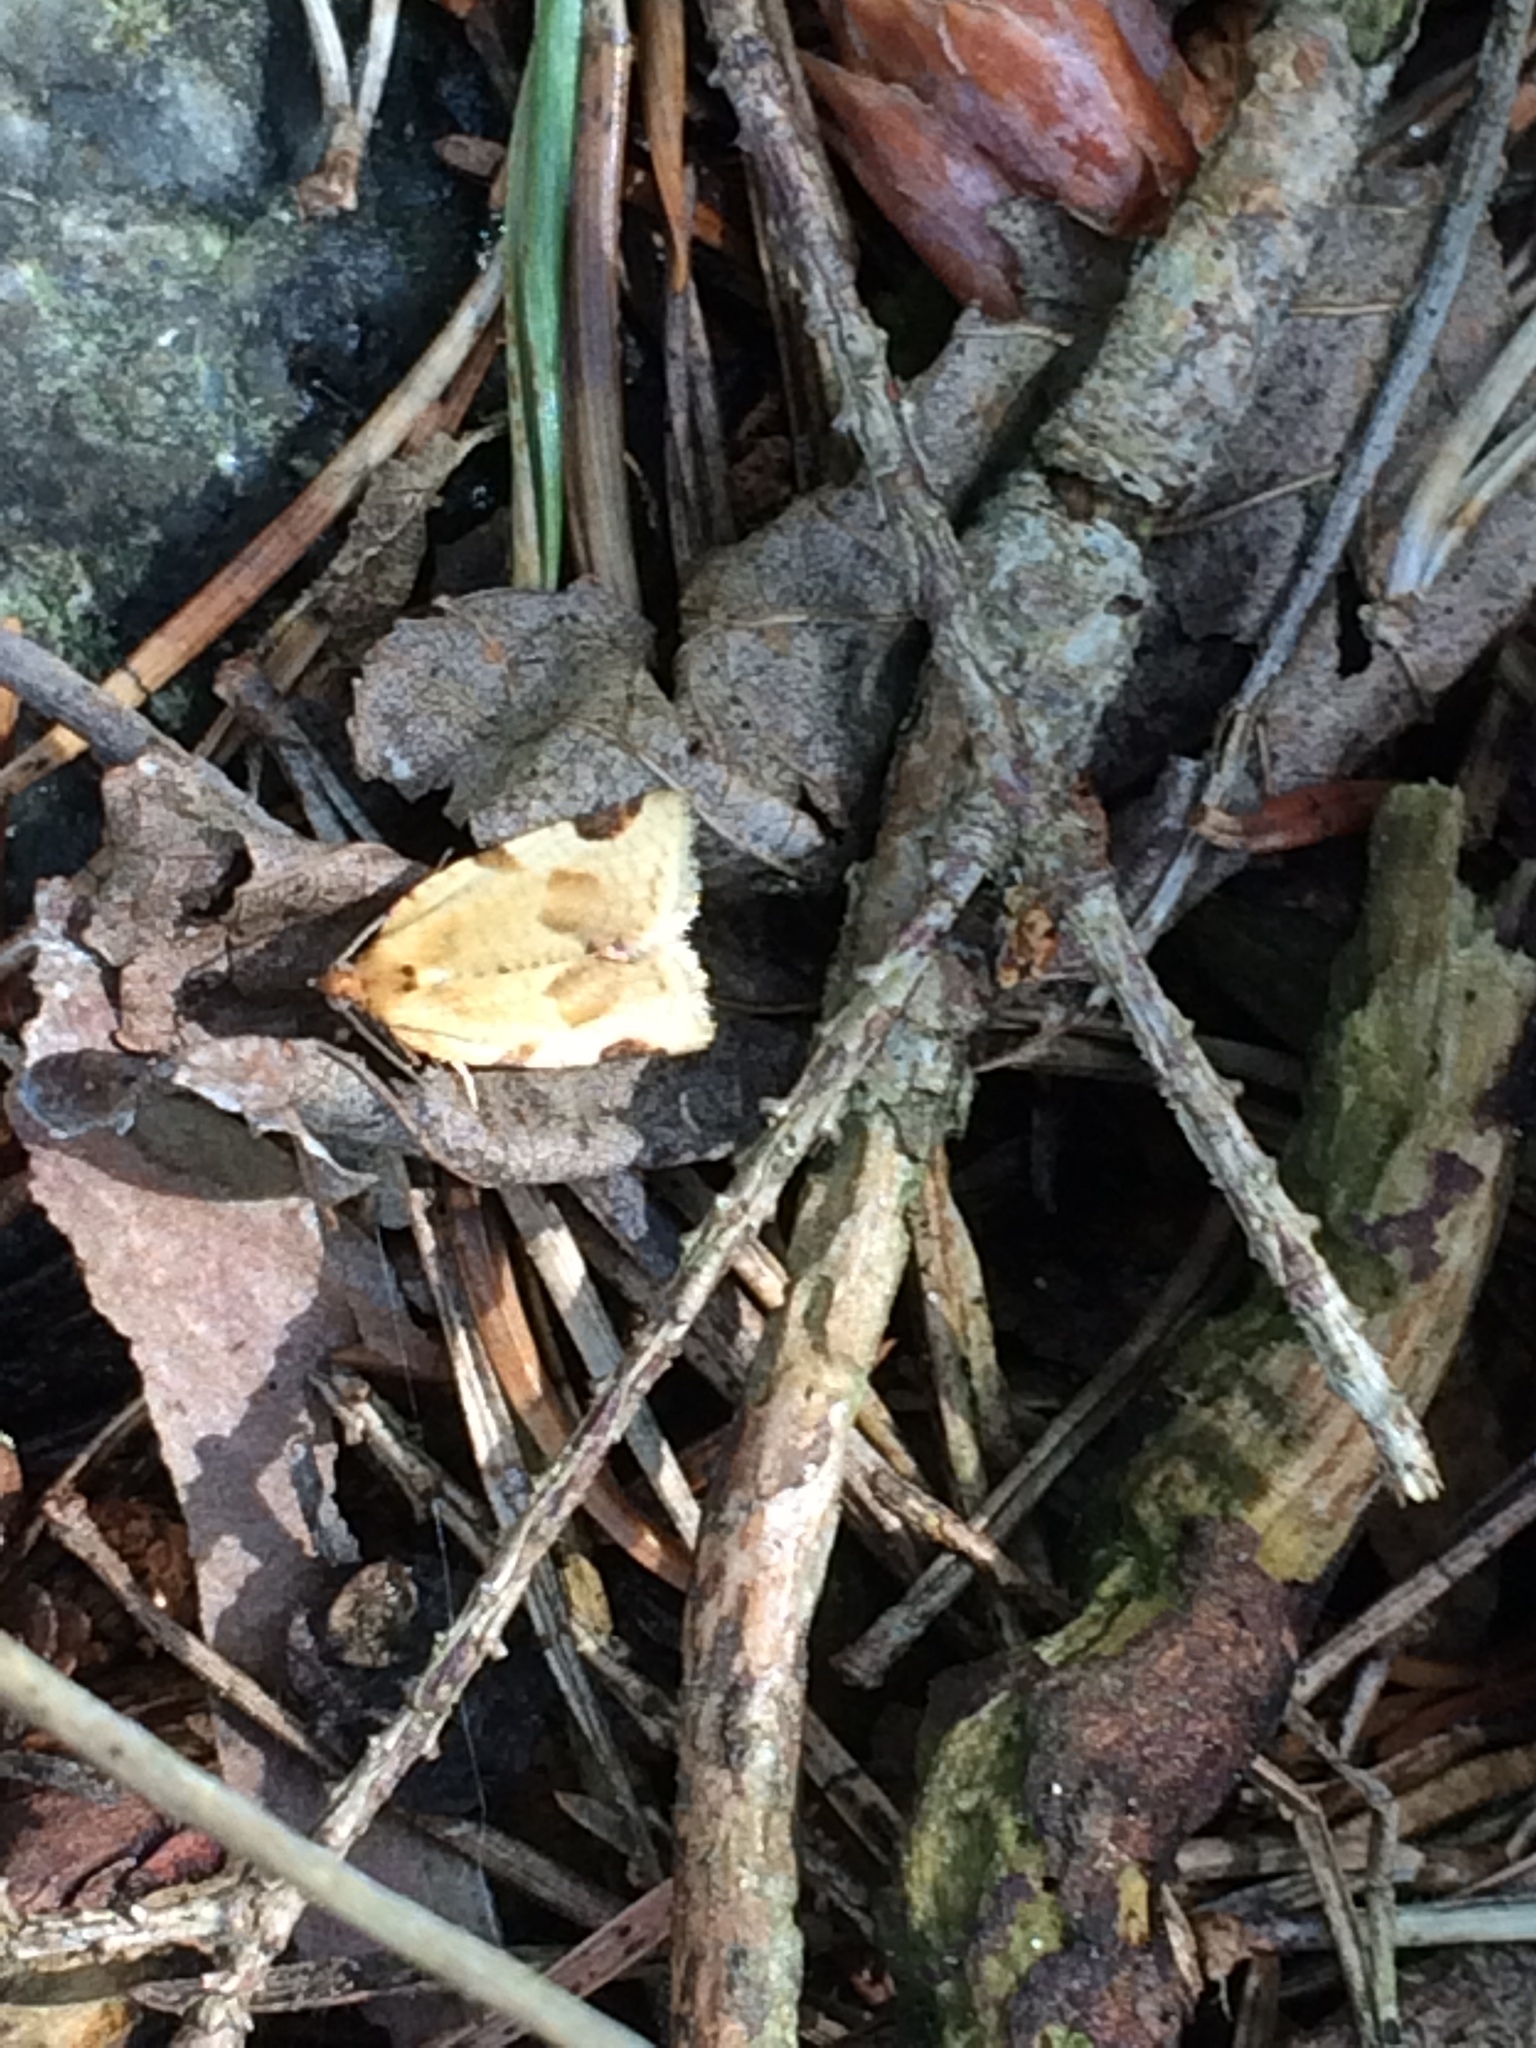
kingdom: Animalia
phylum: Arthropoda
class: Insecta
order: Lepidoptera
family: Tortricidae
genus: Paramesia
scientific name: Paramesia gnomana
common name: Small straw twist
